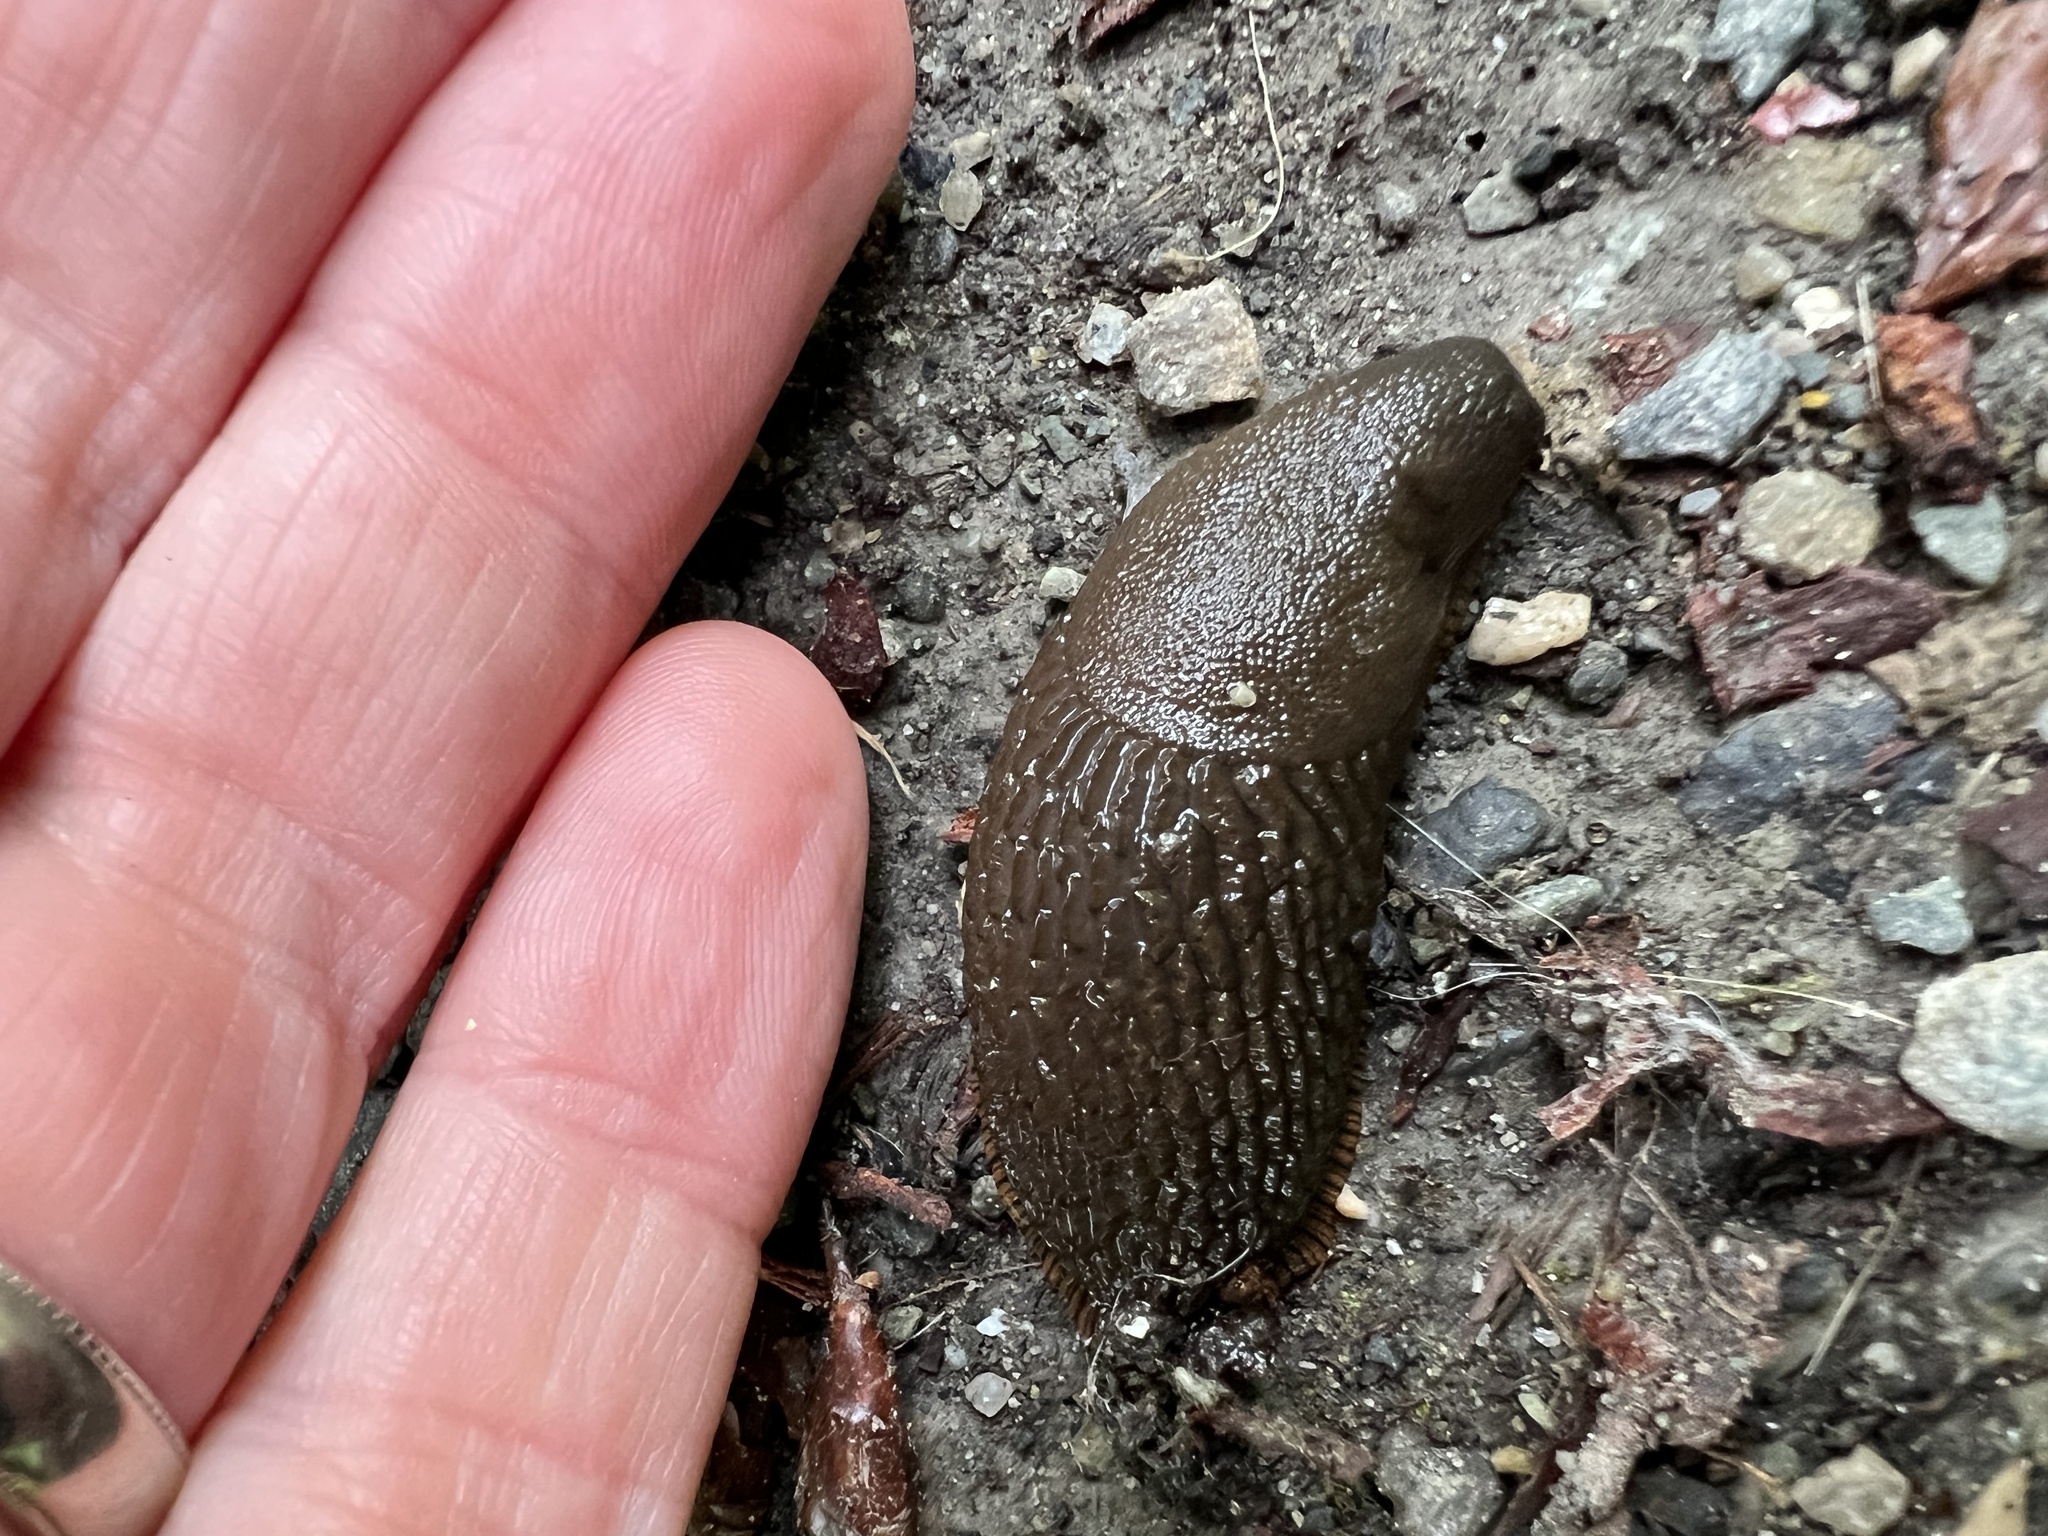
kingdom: Animalia
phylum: Mollusca
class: Gastropoda
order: Stylommatophora
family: Arionidae
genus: Arion
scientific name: Arion
